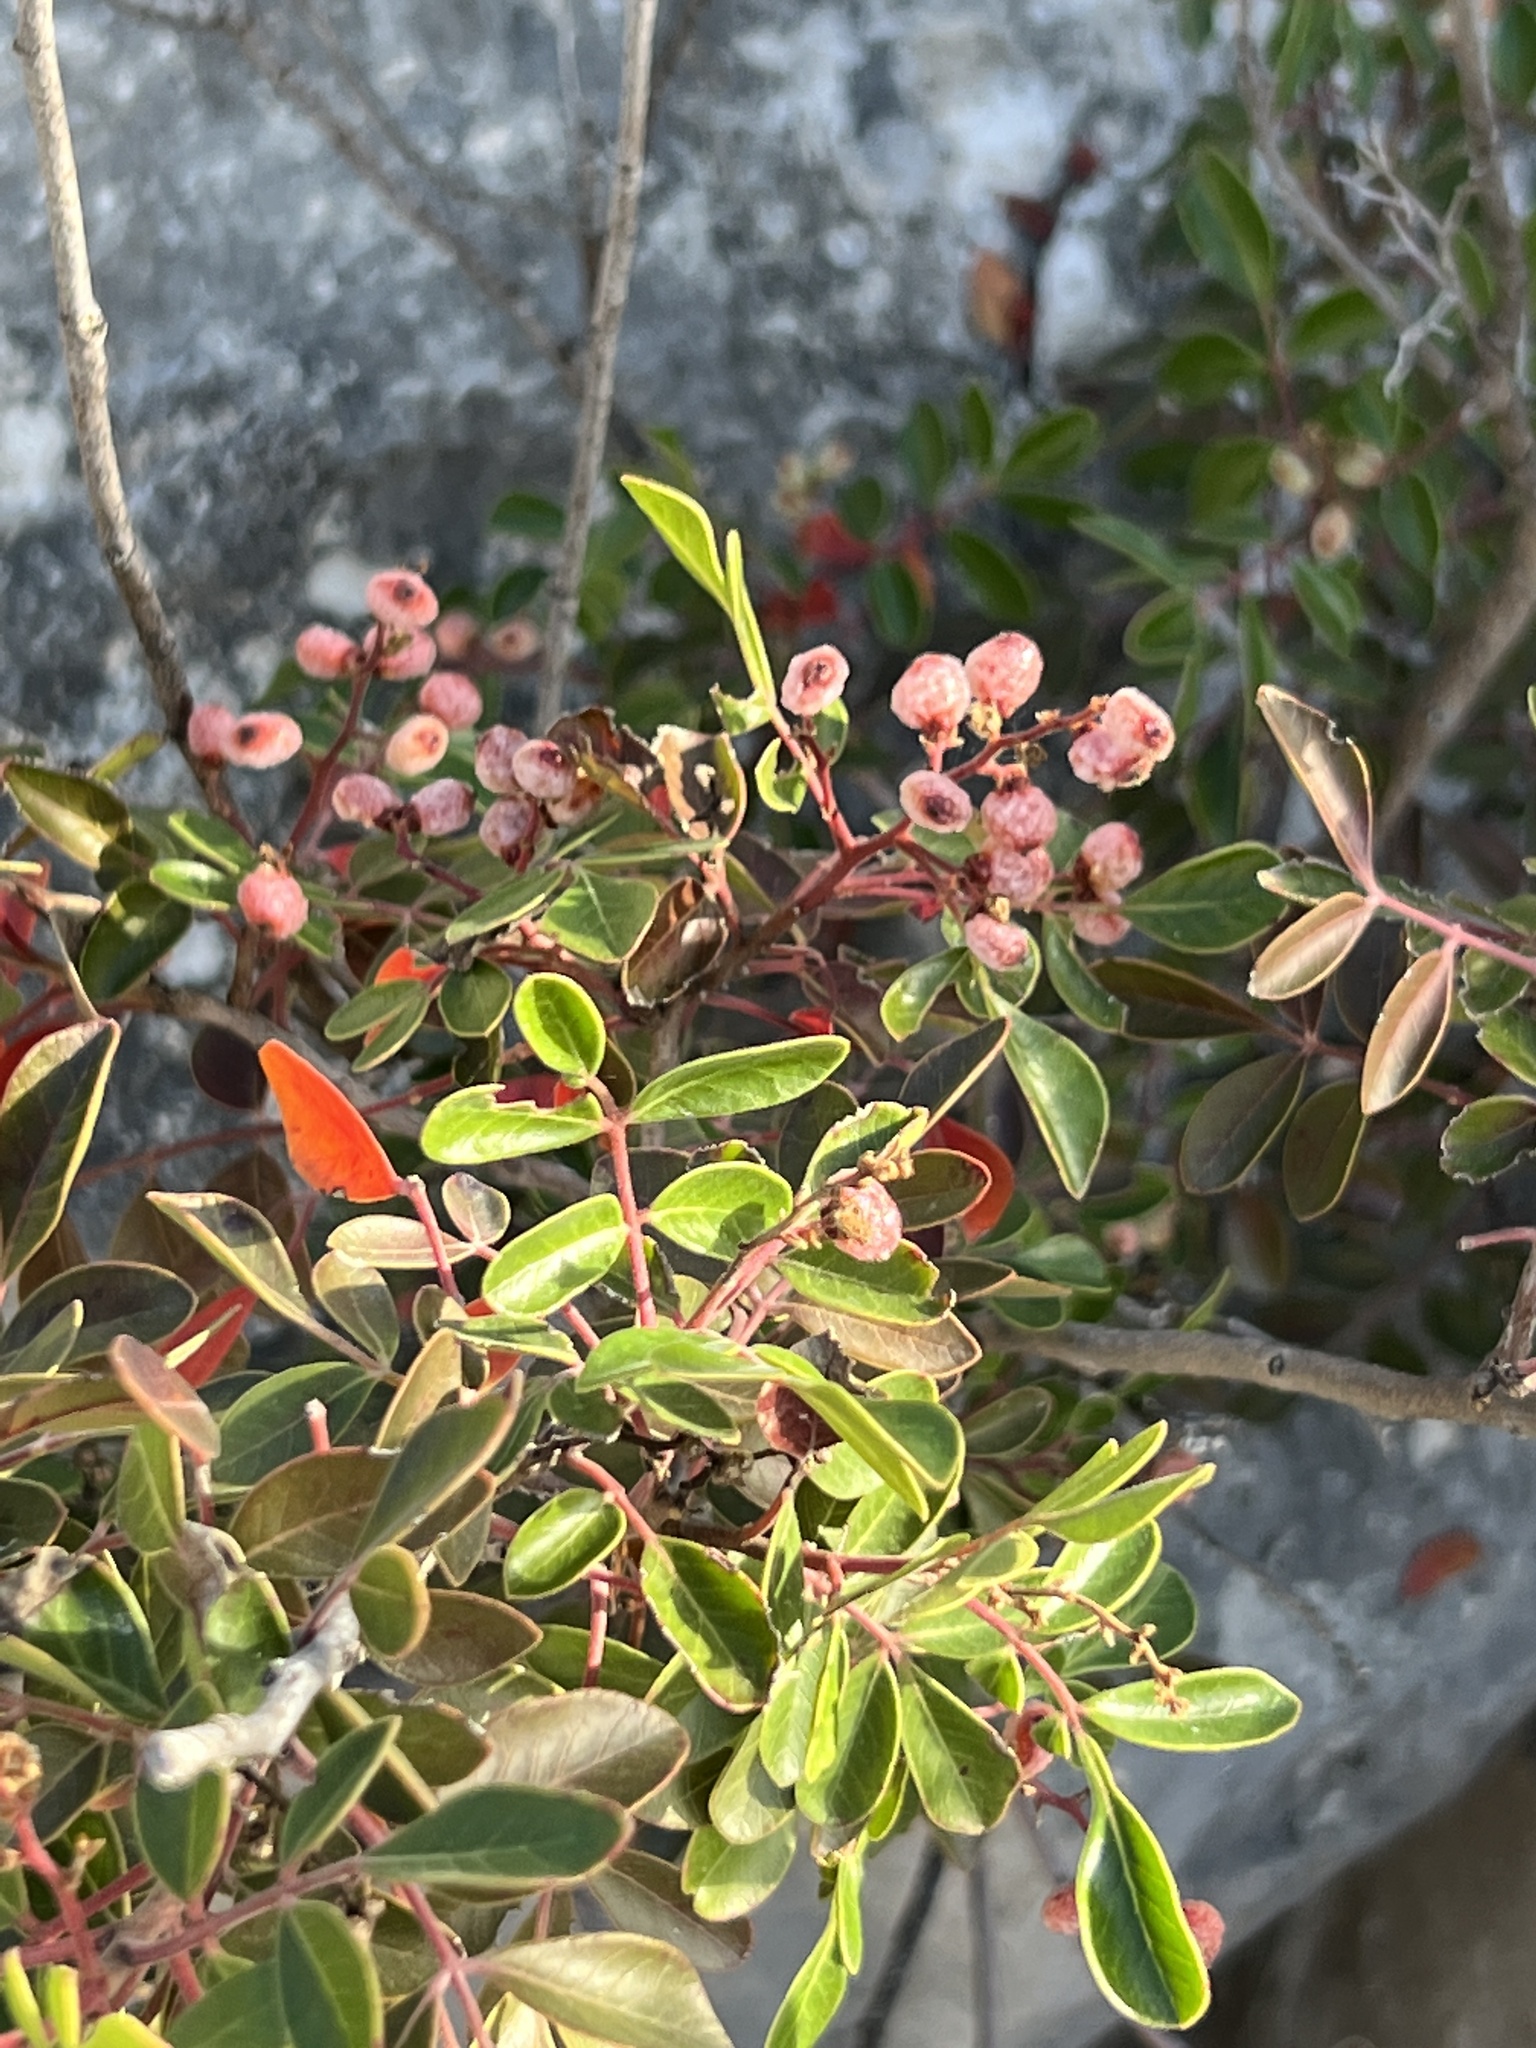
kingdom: Plantae
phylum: Tracheophyta
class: Magnoliopsida
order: Sapindales
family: Anacardiaceae
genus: Rhus
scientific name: Rhus virens
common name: Evergreen sumac
